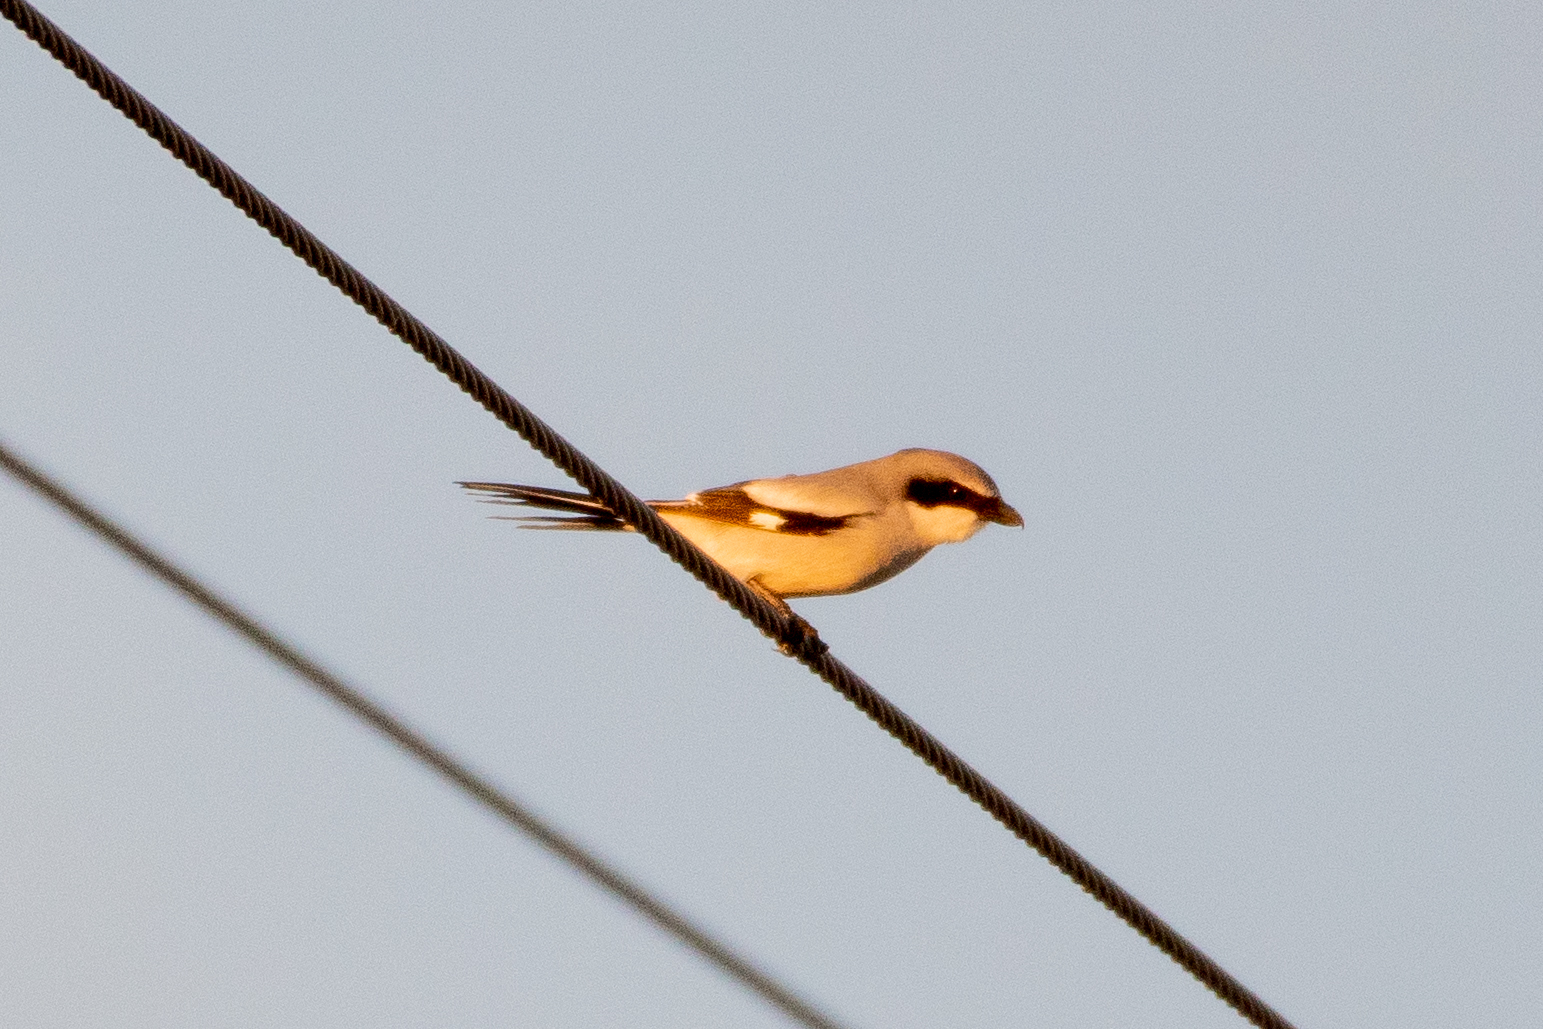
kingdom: Animalia
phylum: Chordata
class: Aves
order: Passeriformes
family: Laniidae
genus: Lanius
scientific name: Lanius ludovicianus
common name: Loggerhead shrike
